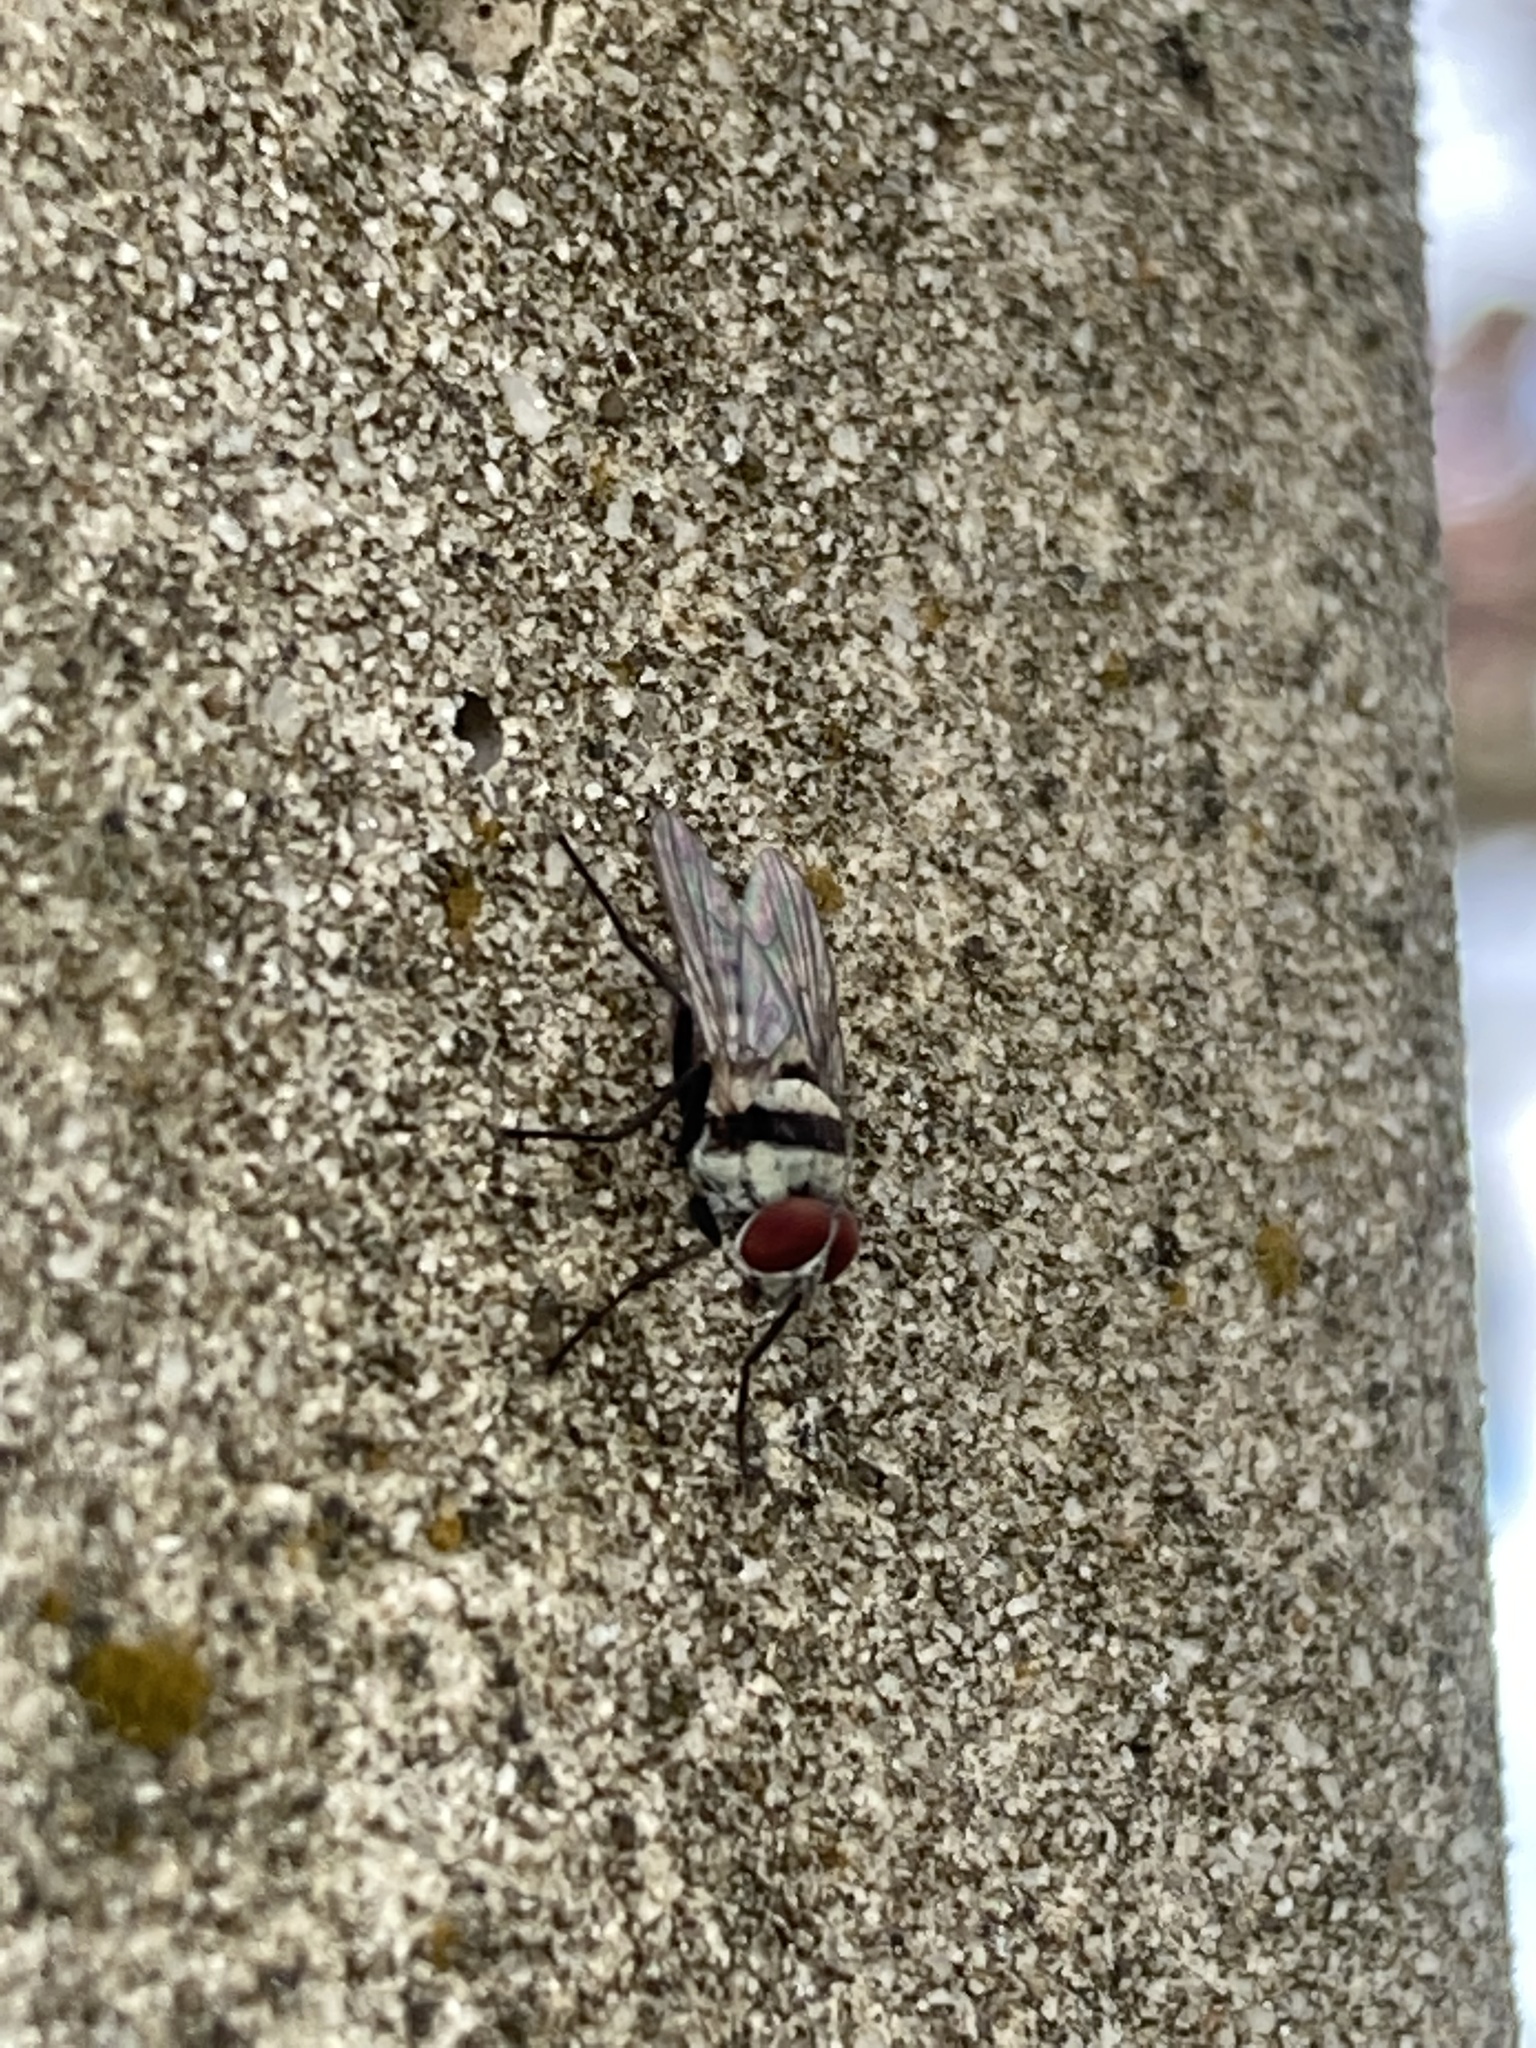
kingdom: Animalia
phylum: Arthropoda
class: Insecta
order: Diptera
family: Anthomyiidae
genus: Anthomyia
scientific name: Anthomyia illocata
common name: Fly
